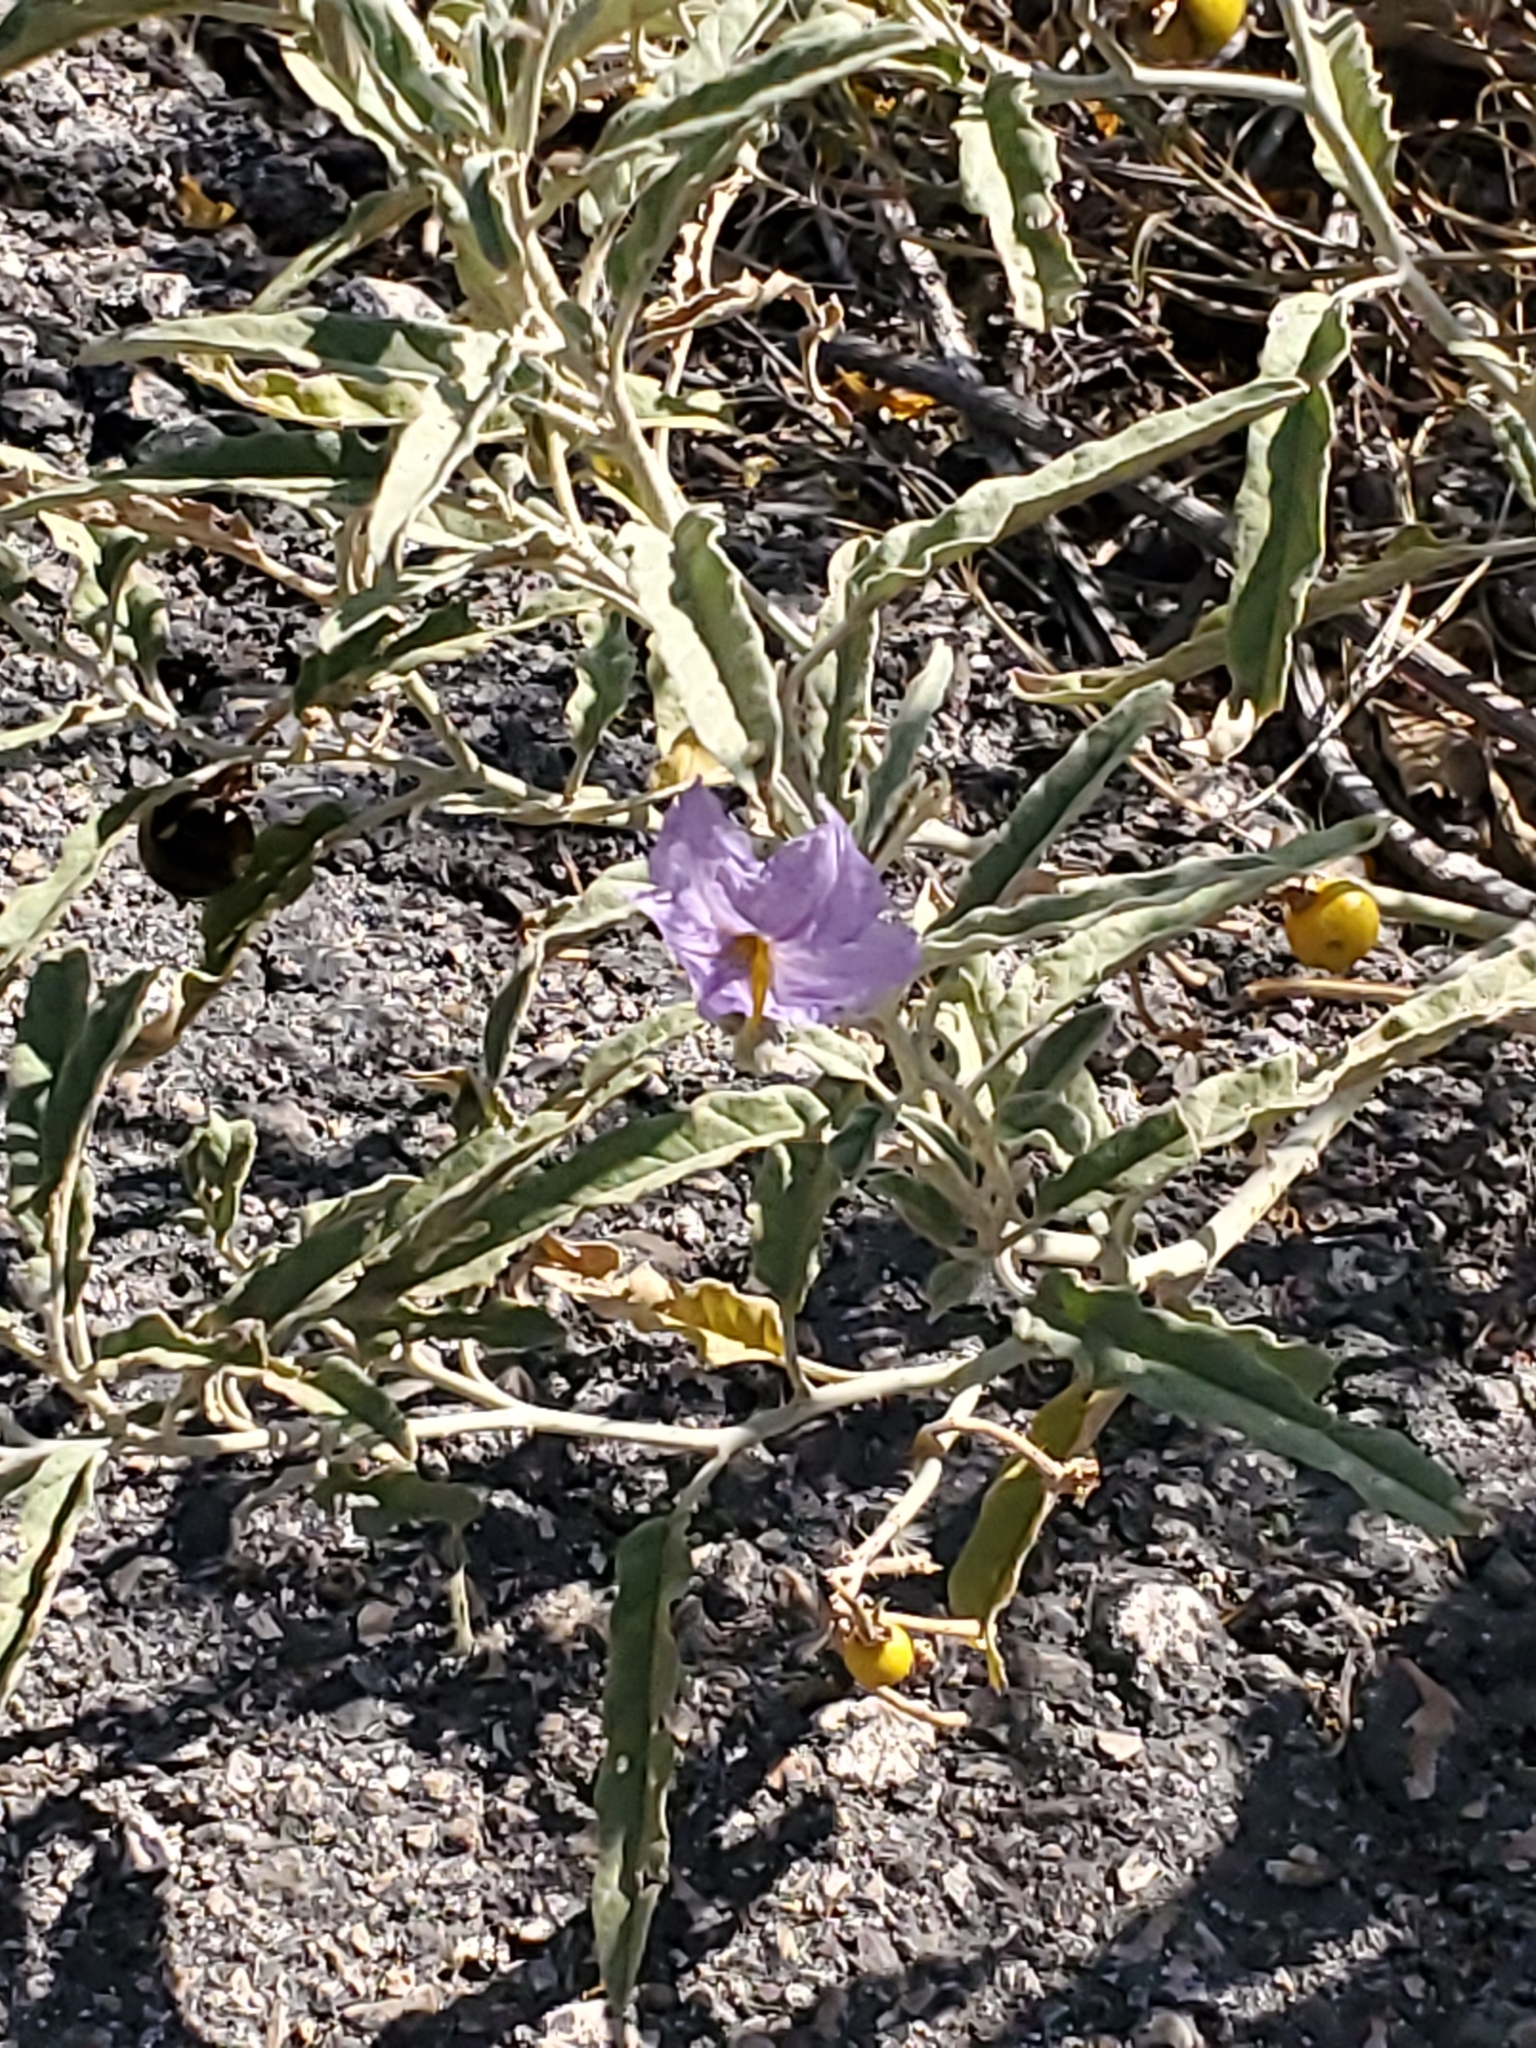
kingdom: Plantae
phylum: Tracheophyta
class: Magnoliopsida
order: Solanales
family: Solanaceae
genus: Solanum
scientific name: Solanum elaeagnifolium
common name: Silverleaf nightshade
